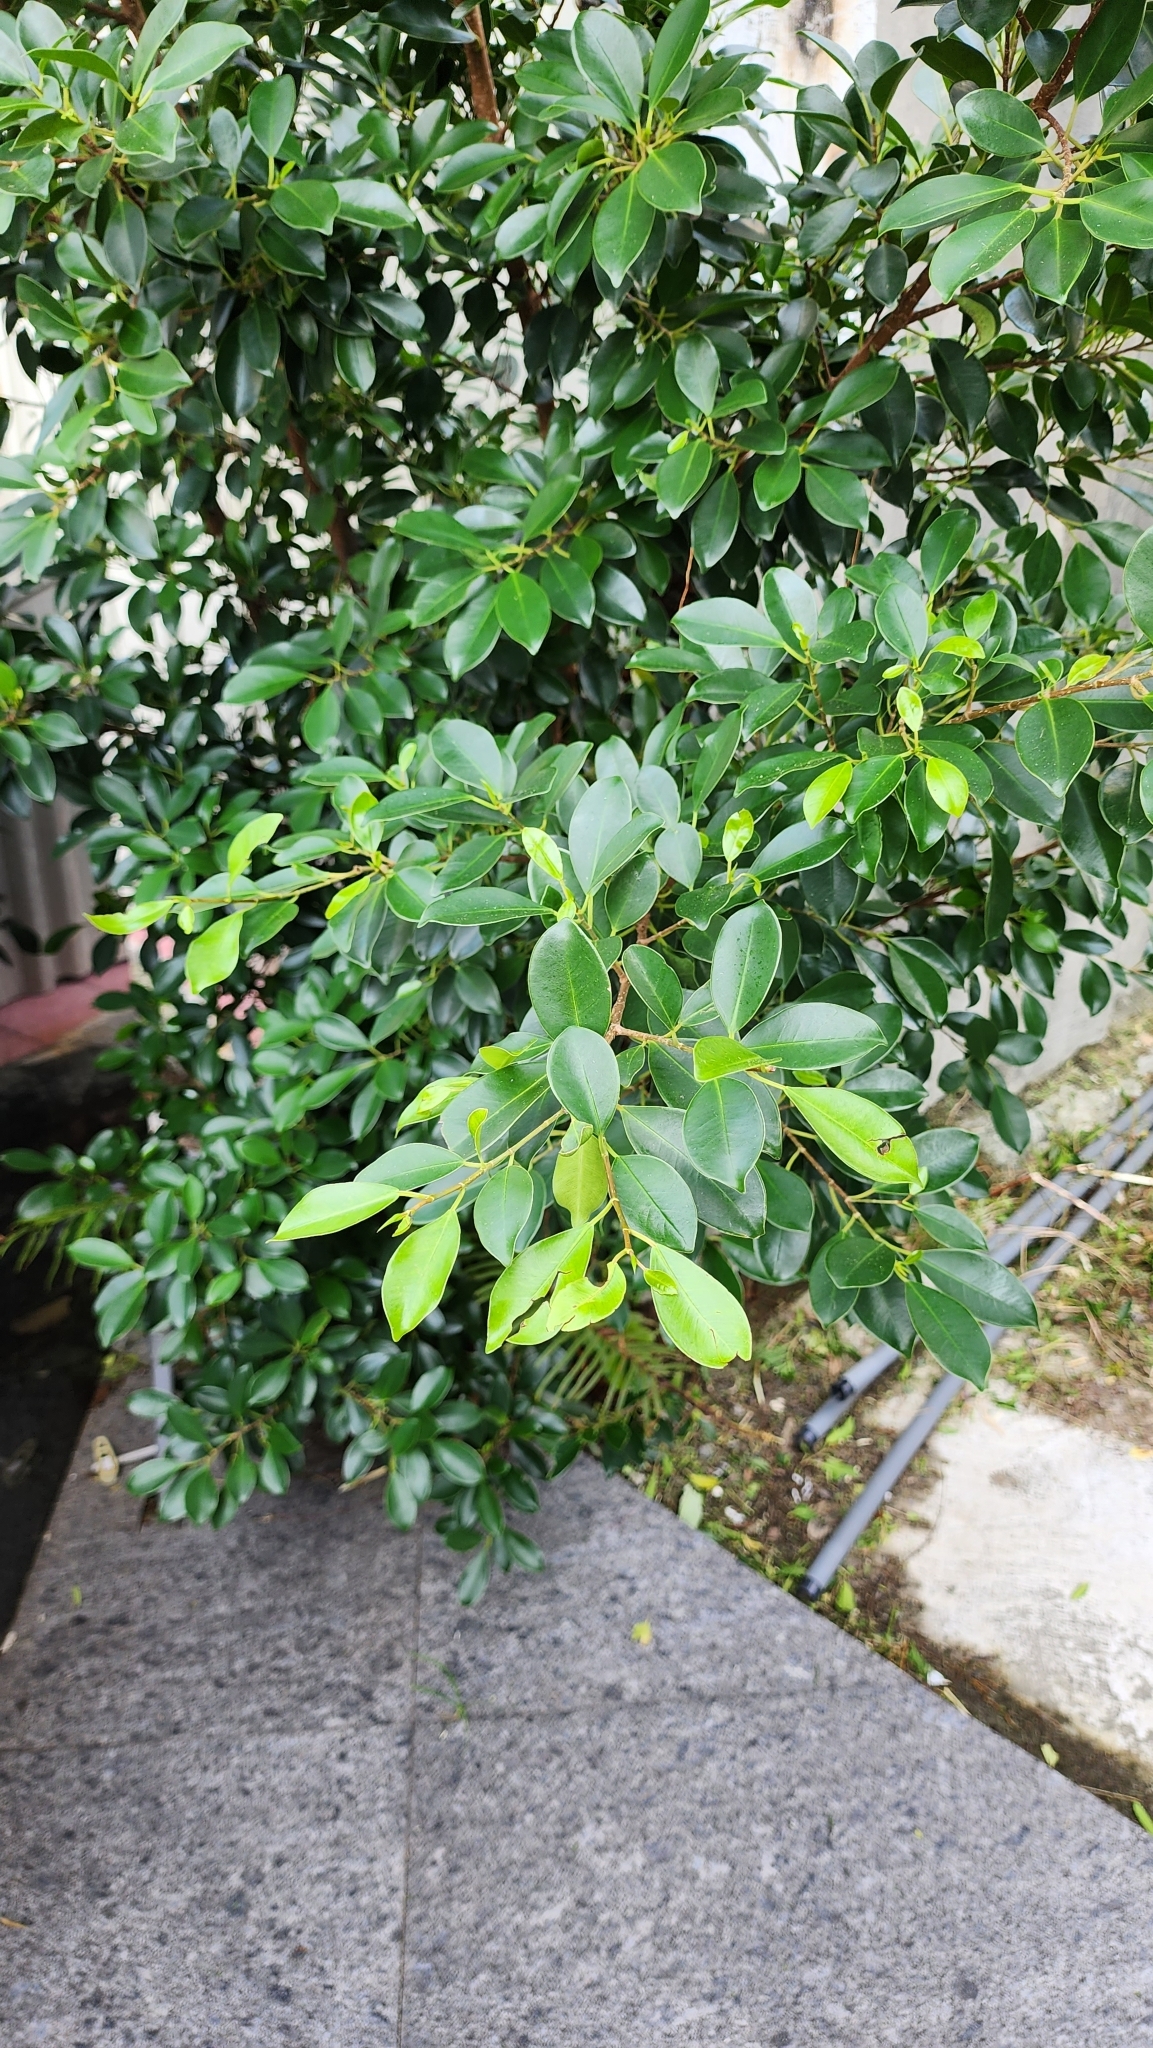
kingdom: Plantae
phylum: Tracheophyta
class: Magnoliopsida
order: Rosales
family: Moraceae
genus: Ficus
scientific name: Ficus microcarpa
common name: Chinese banyan
